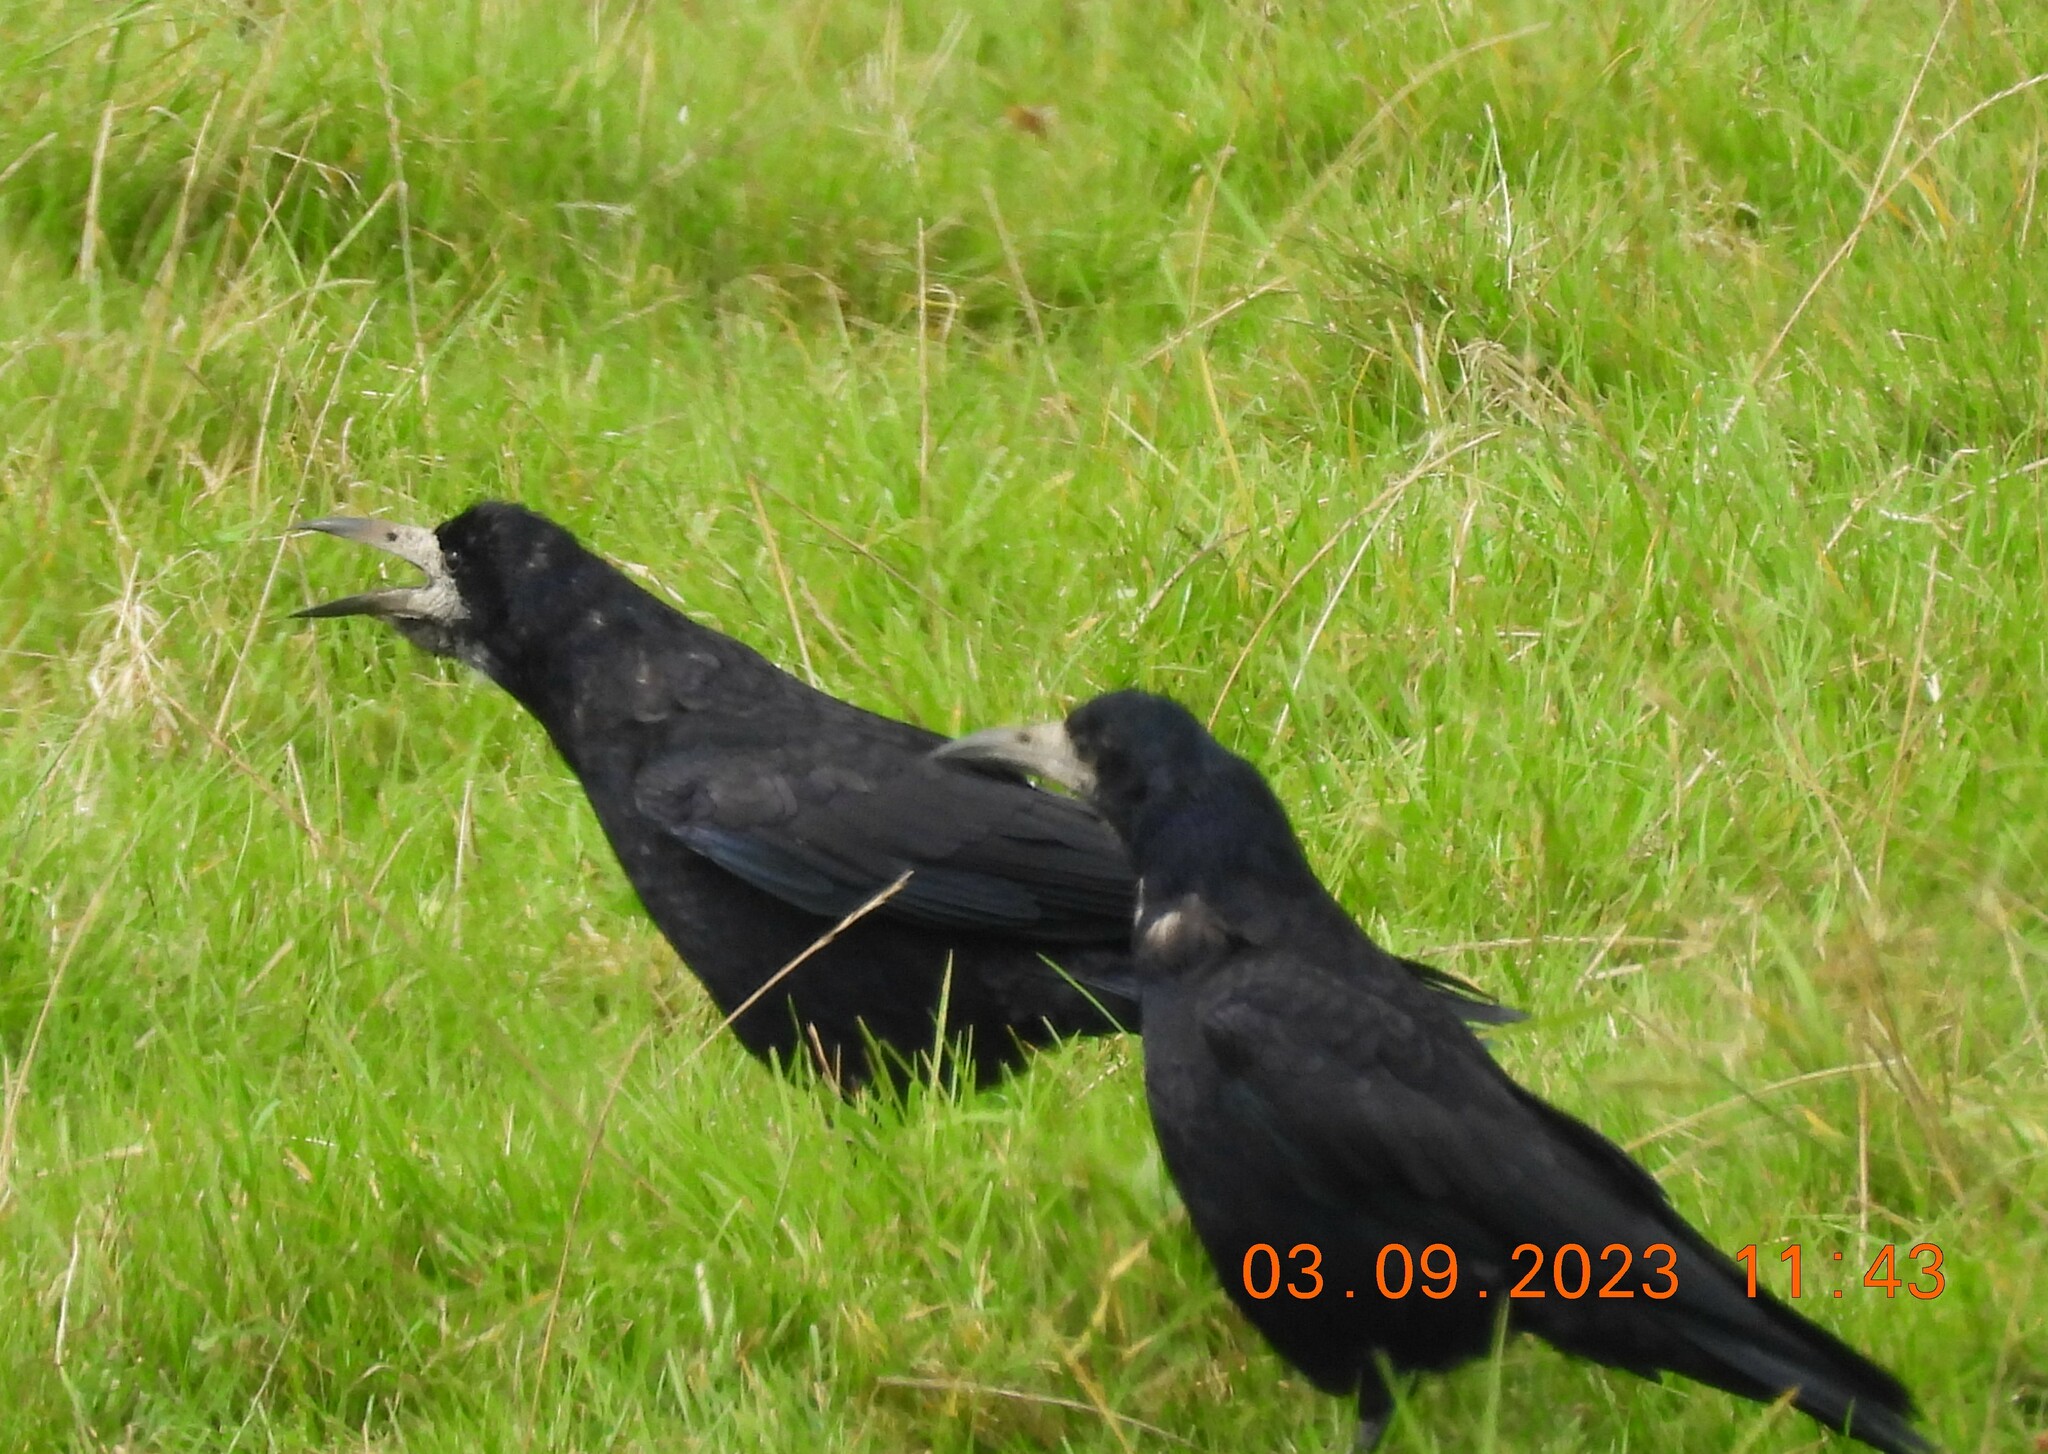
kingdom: Animalia
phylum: Chordata
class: Aves
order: Passeriformes
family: Corvidae
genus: Corvus
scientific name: Corvus frugilegus
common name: Rook
